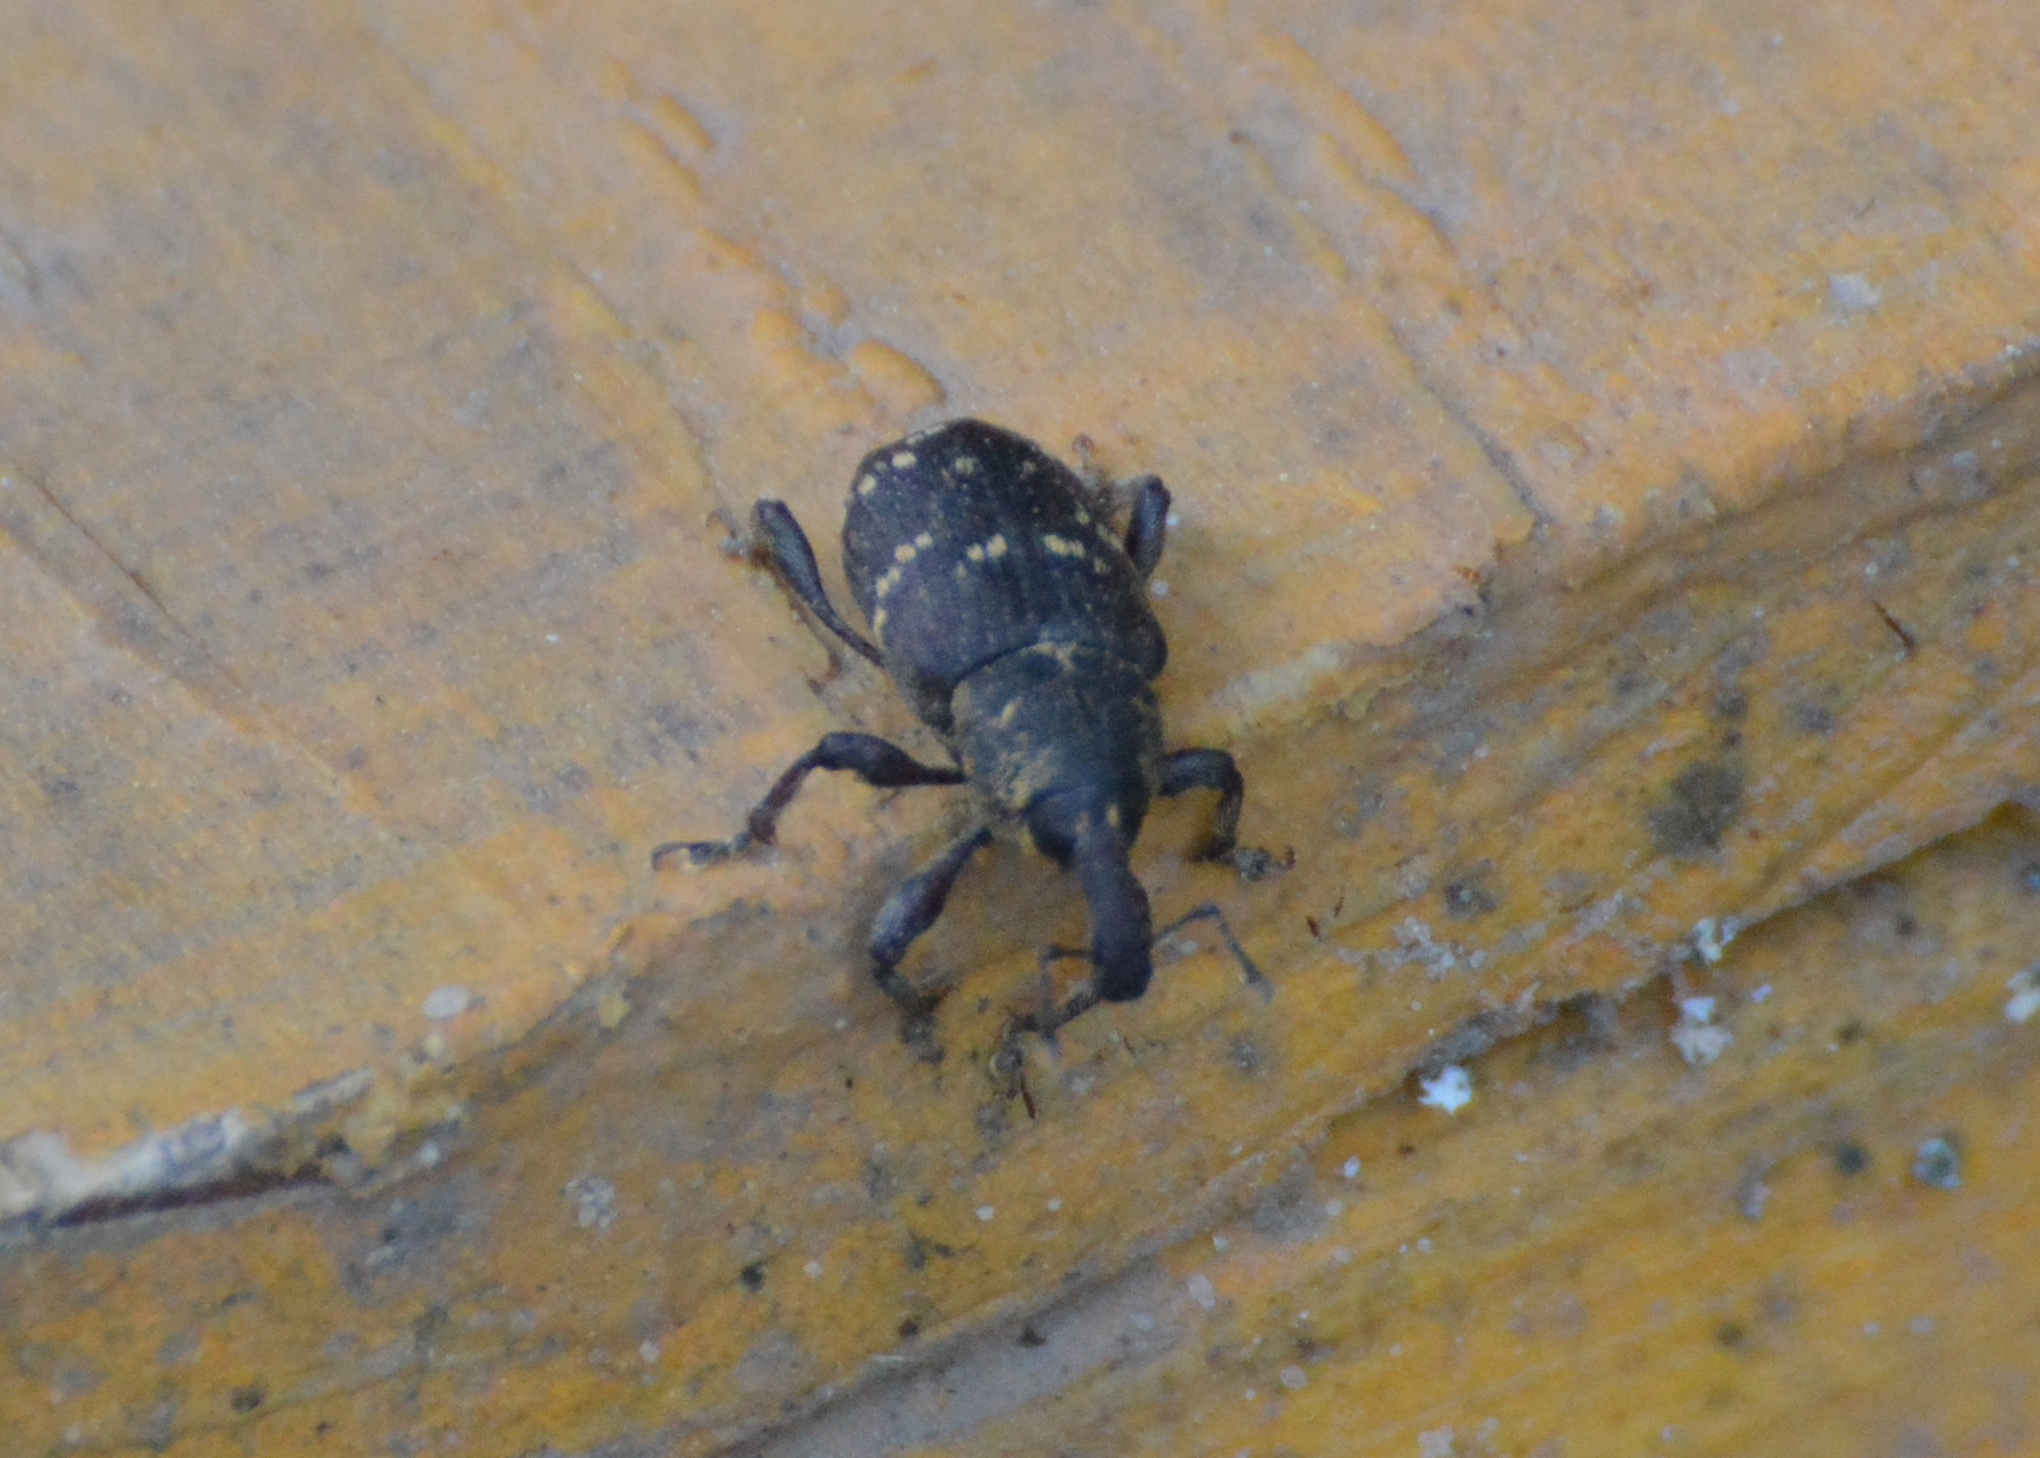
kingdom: Animalia
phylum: Arthropoda
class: Insecta
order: Coleoptera
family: Curculionidae
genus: Hylobius
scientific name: Hylobius abietis
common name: Large pine weevil
